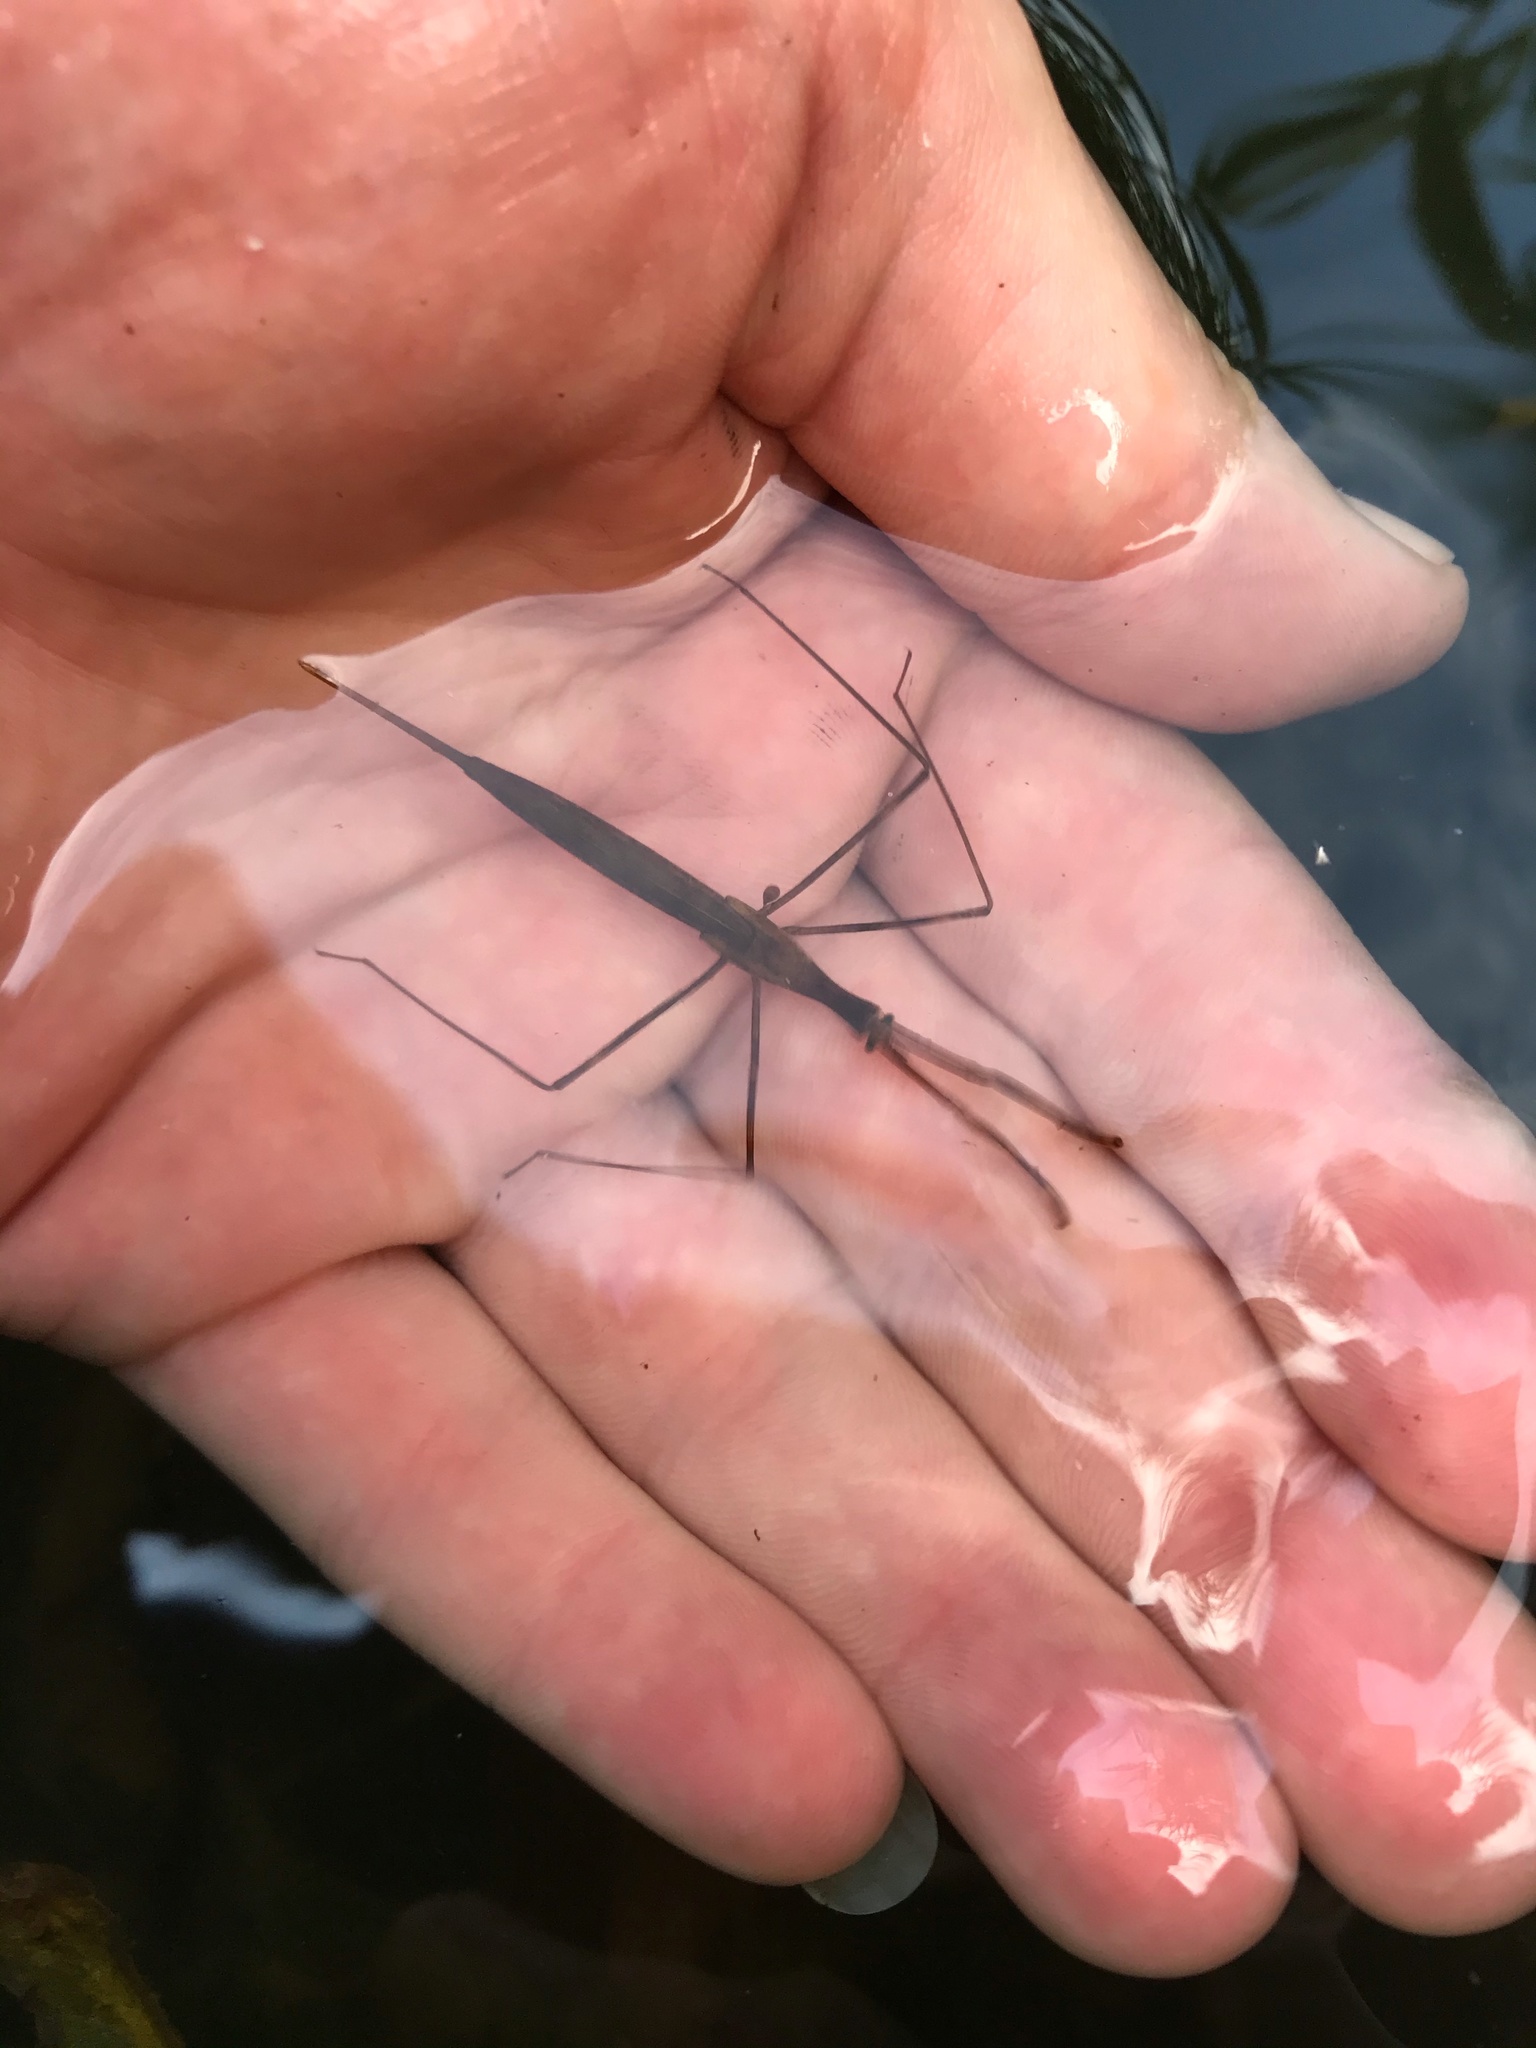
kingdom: Animalia
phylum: Arthropoda
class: Insecta
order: Hemiptera
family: Nepidae
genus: Ranatra
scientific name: Ranatra linearis
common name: Water stick insect
